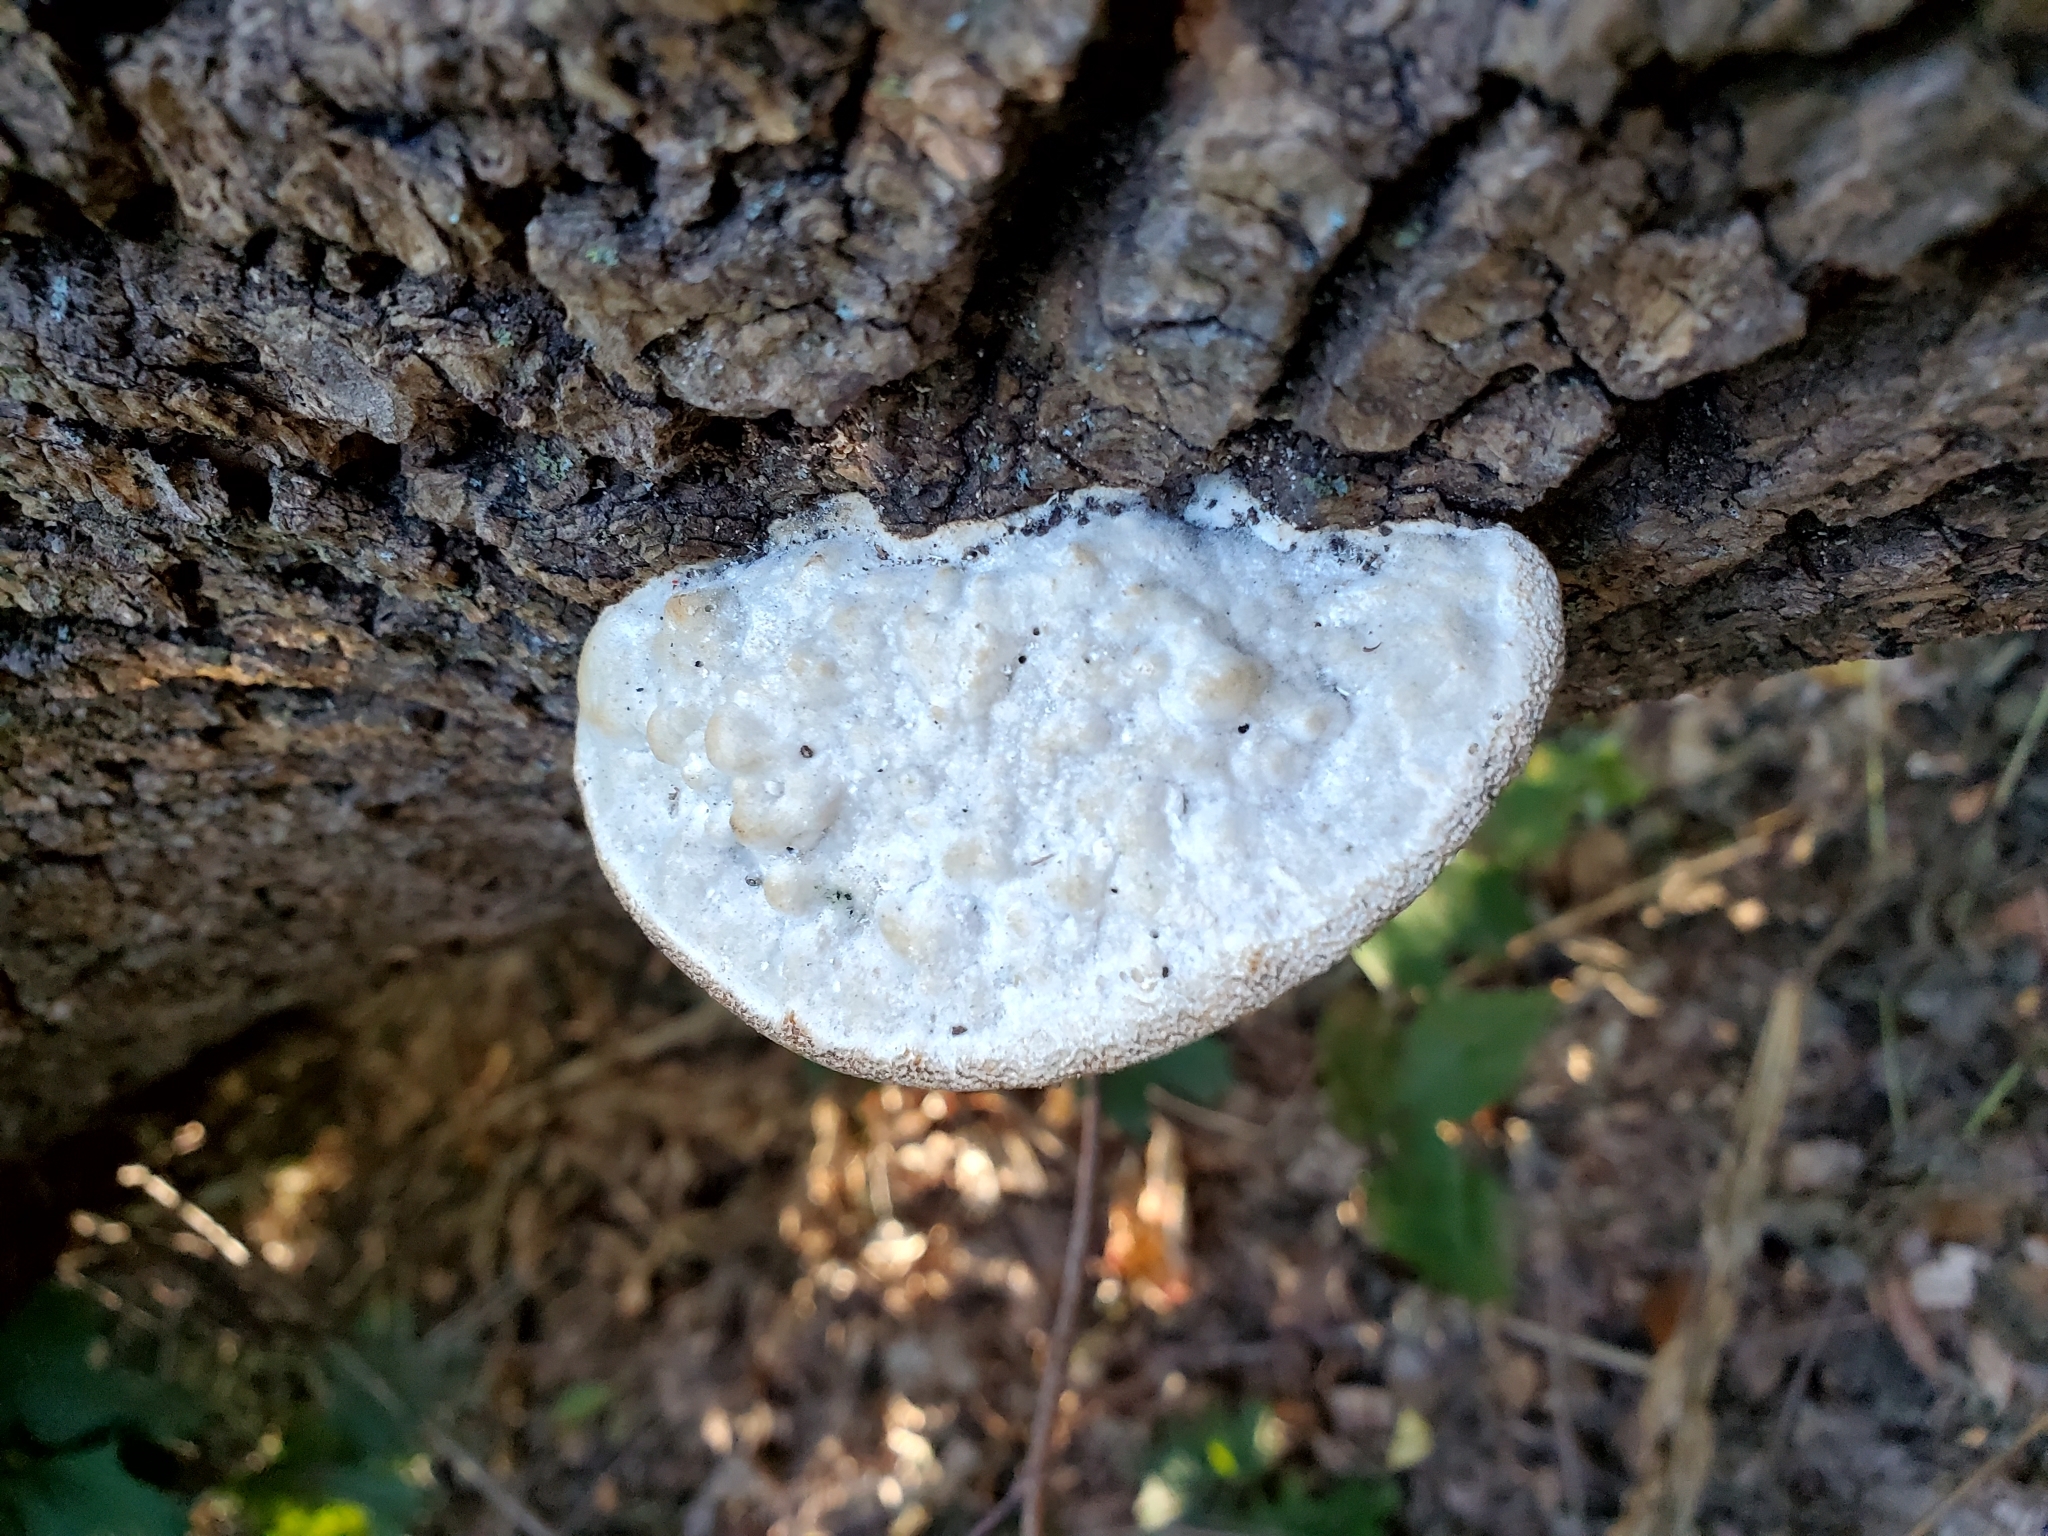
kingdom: Fungi
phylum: Basidiomycota
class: Agaricomycetes
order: Polyporales
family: Polyporaceae
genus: Trametes
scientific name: Trametes gibbosa
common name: Lumpy bracket
